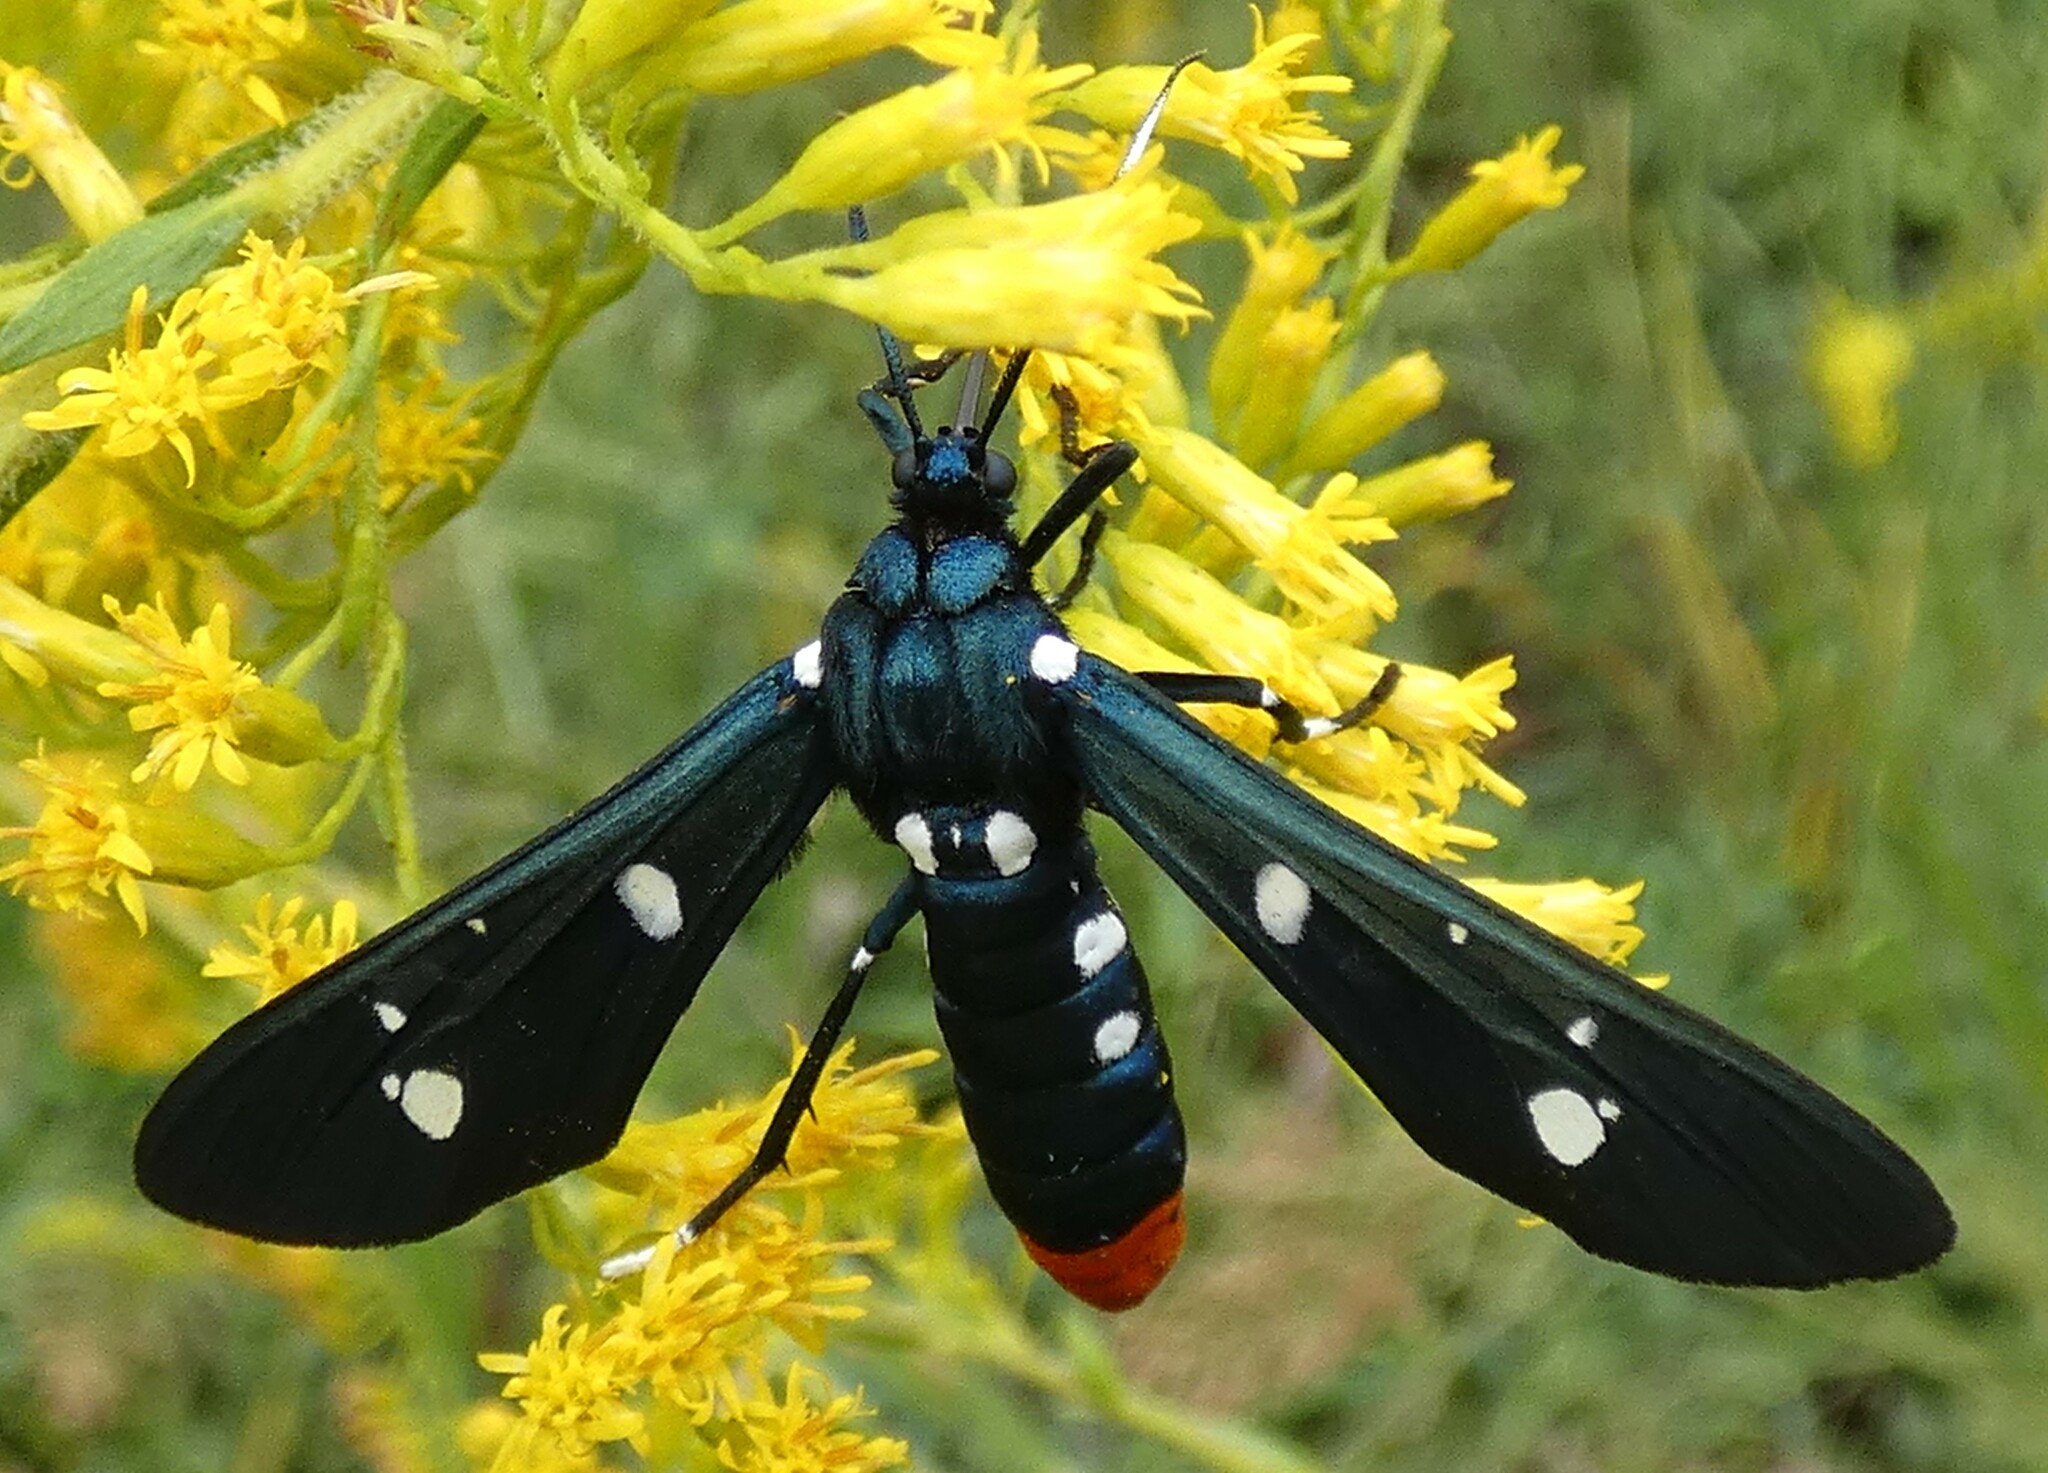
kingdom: Animalia
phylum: Arthropoda
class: Insecta
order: Lepidoptera
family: Erebidae
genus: Syntomeida
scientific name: Syntomeida epilais
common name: Polka-dot wasp moth
